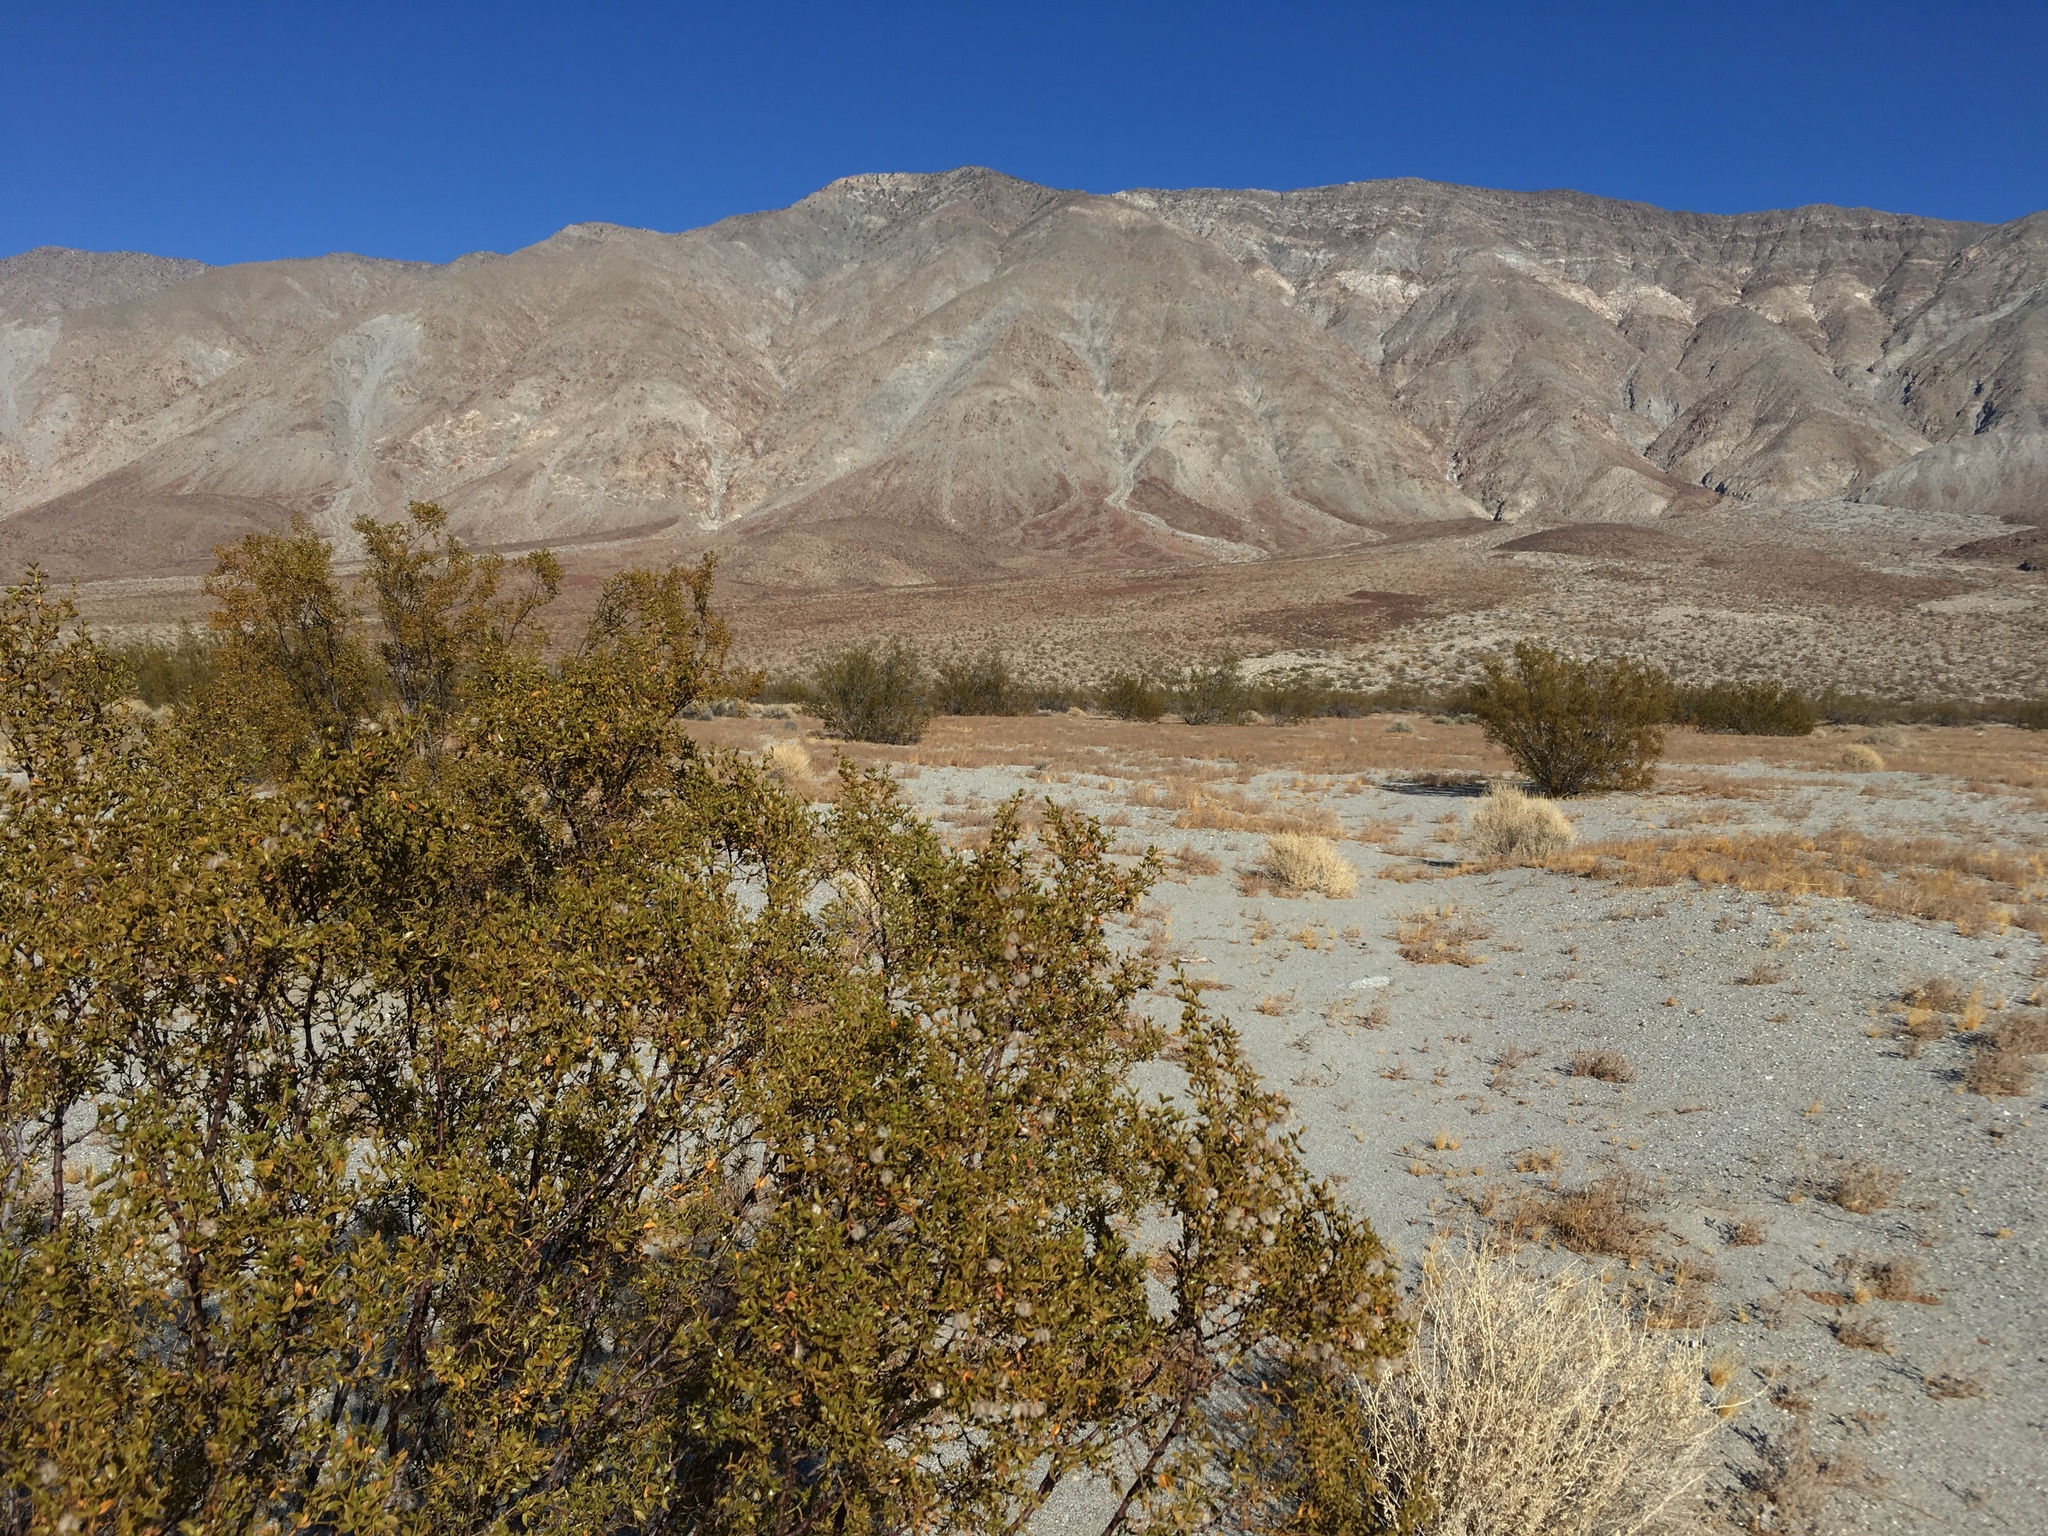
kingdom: Plantae
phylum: Tracheophyta
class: Magnoliopsida
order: Zygophyllales
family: Zygophyllaceae
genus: Larrea
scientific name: Larrea tridentata
